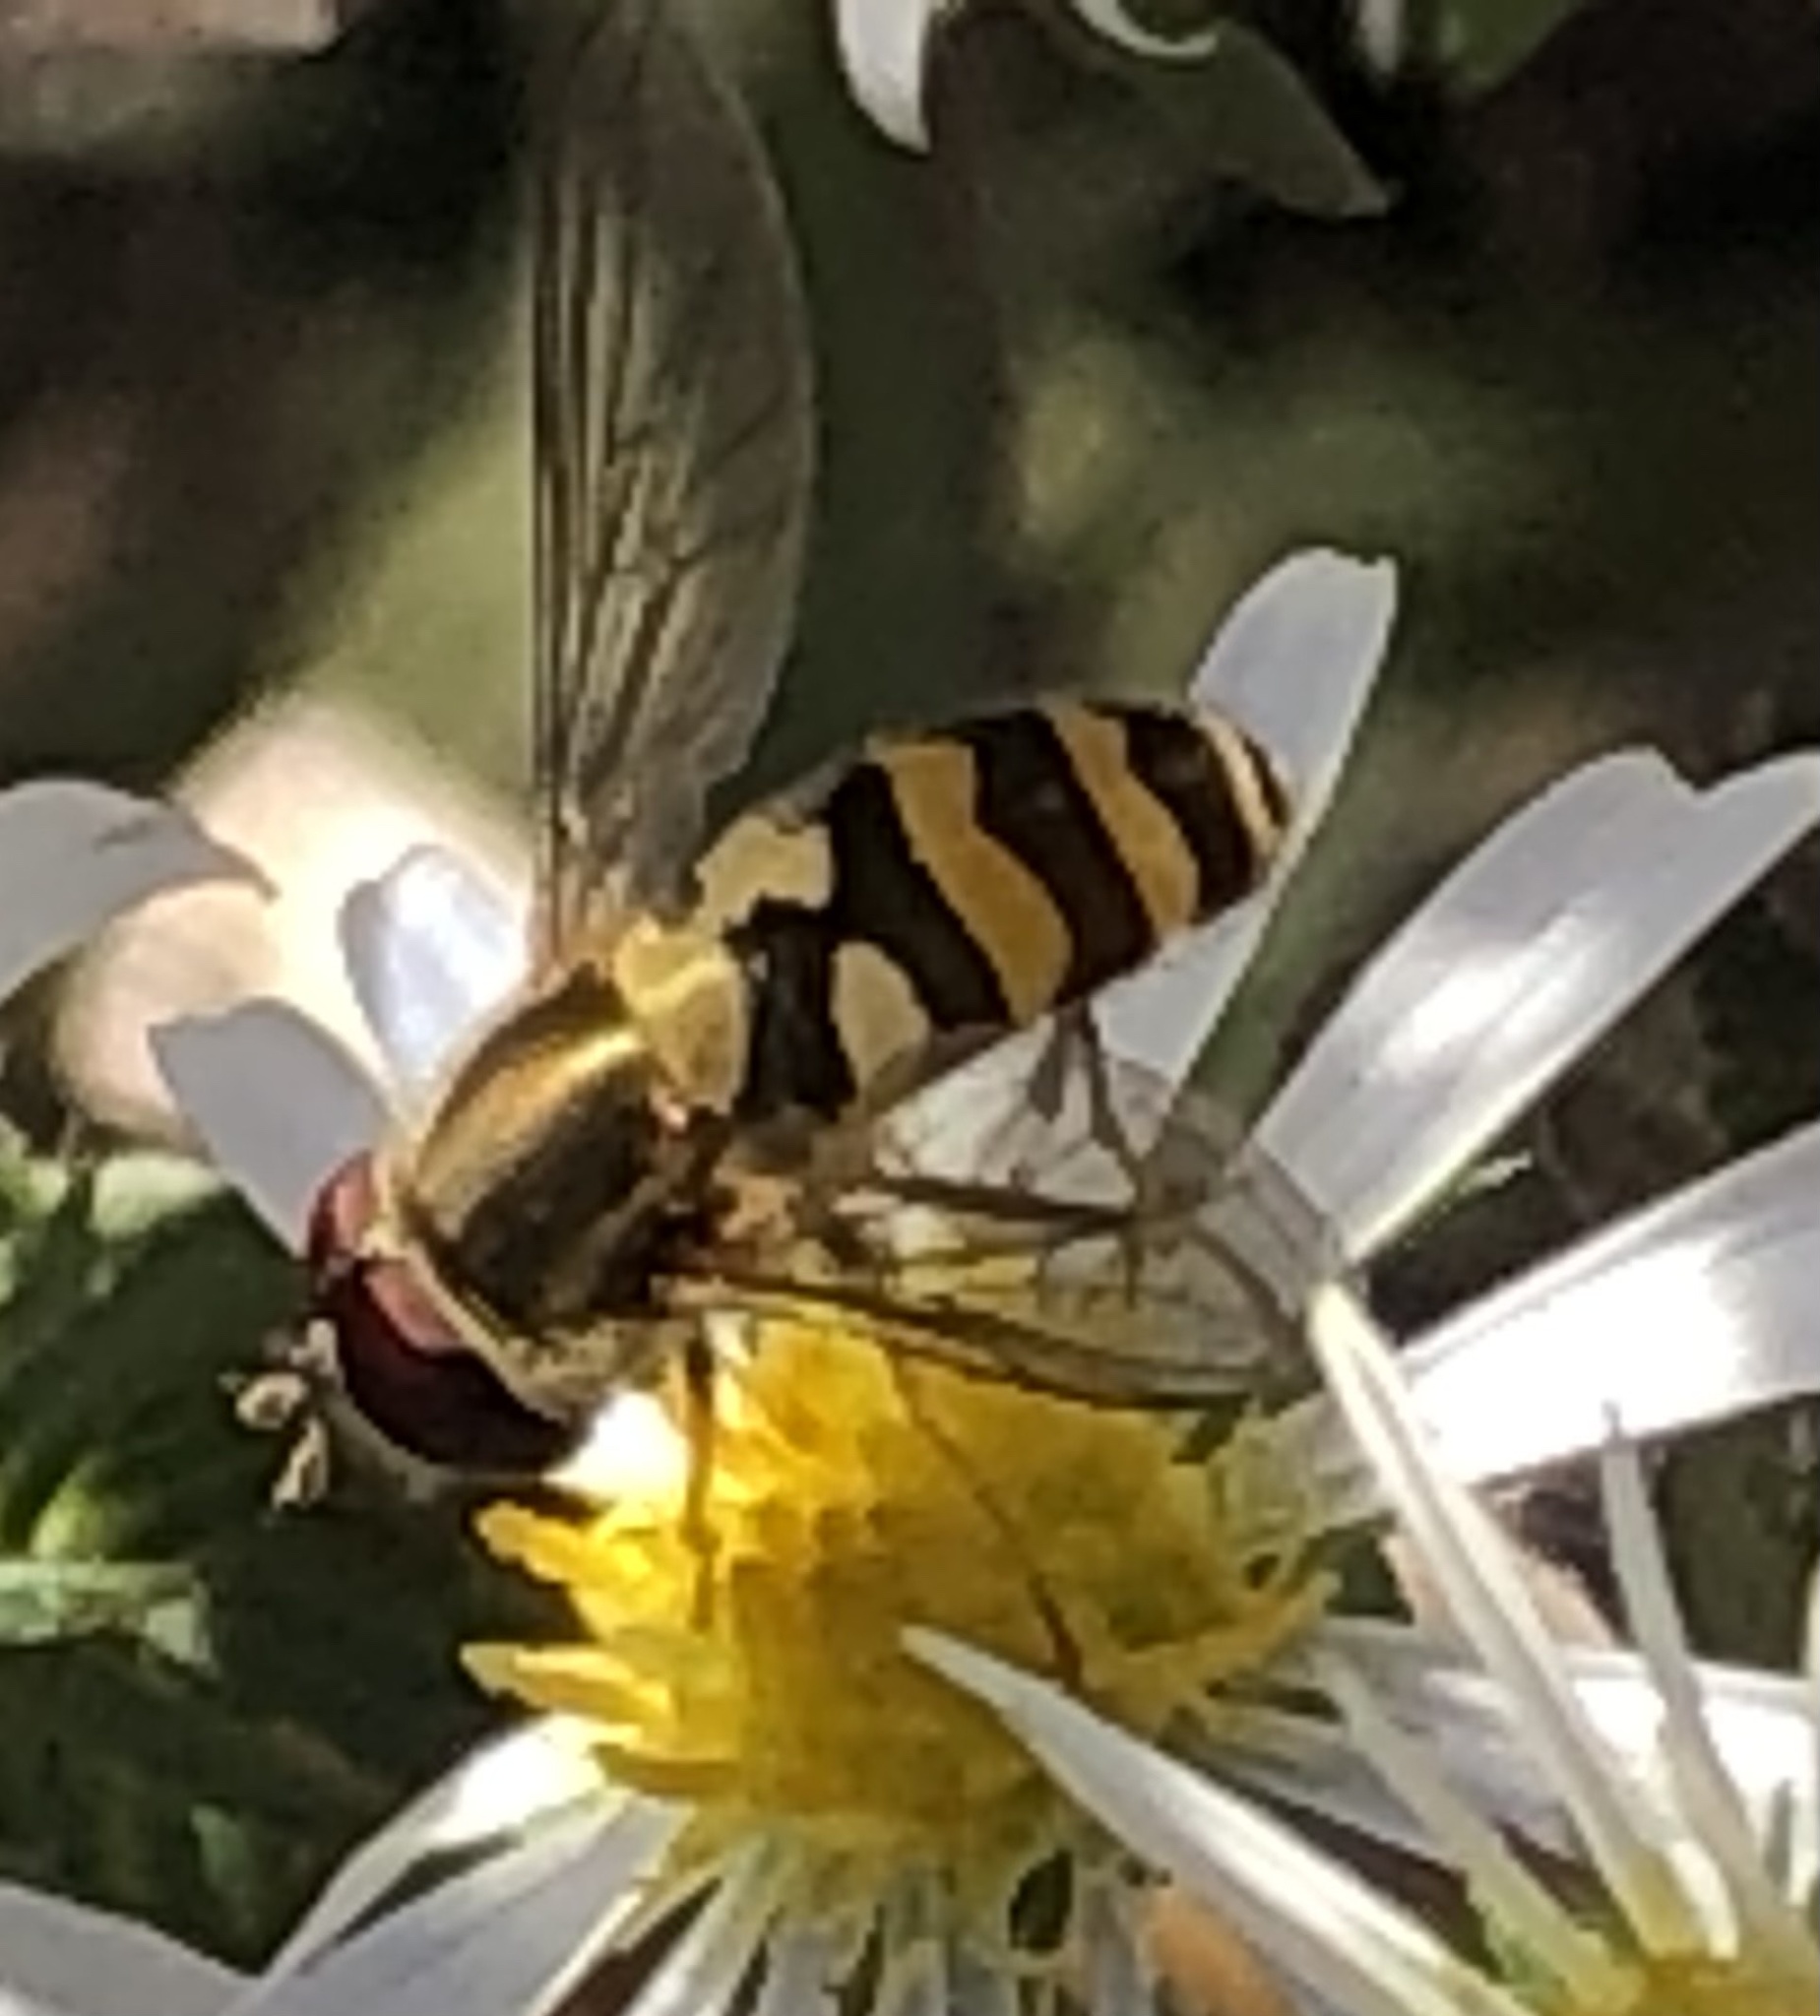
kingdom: Animalia
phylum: Arthropoda
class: Insecta
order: Diptera
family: Syrphidae
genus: Syrphus
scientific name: Syrphus
